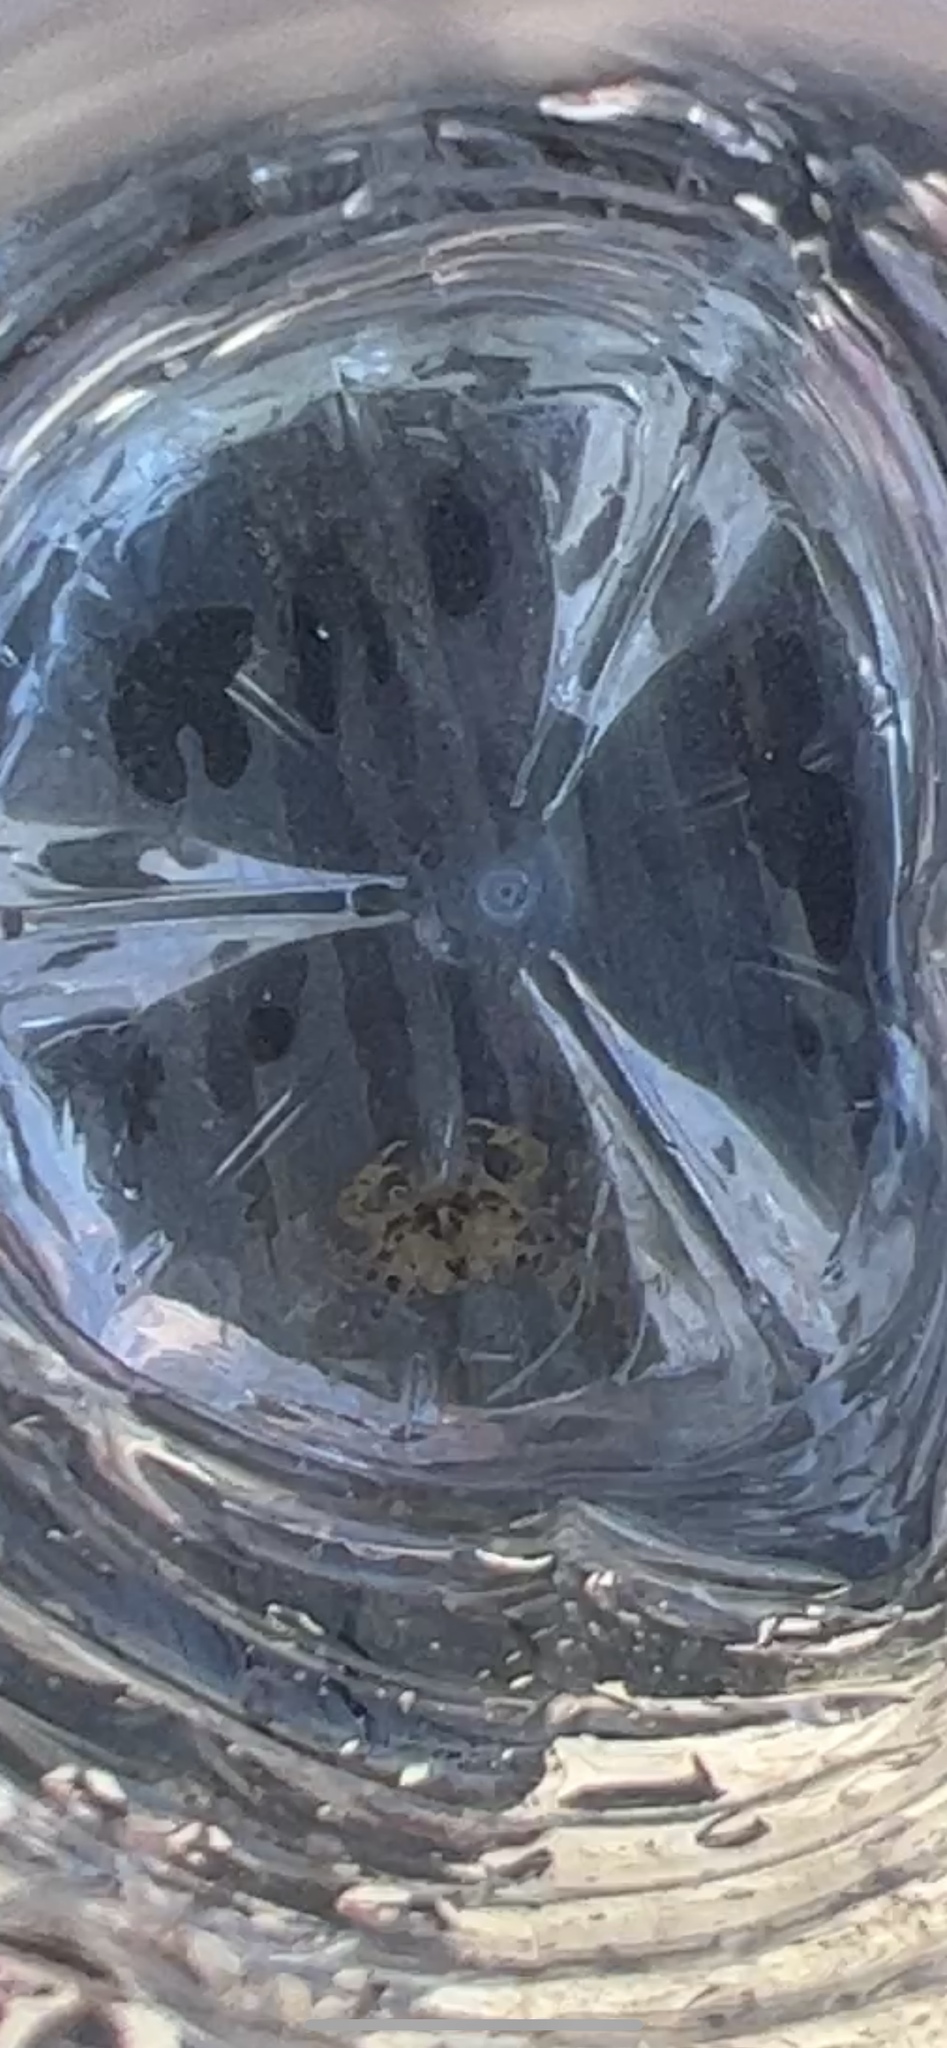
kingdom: Animalia
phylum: Arthropoda
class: Malacostraca
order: Decapoda
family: Portunidae
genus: Portunus
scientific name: Portunus sayi
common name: Sargassum crab
